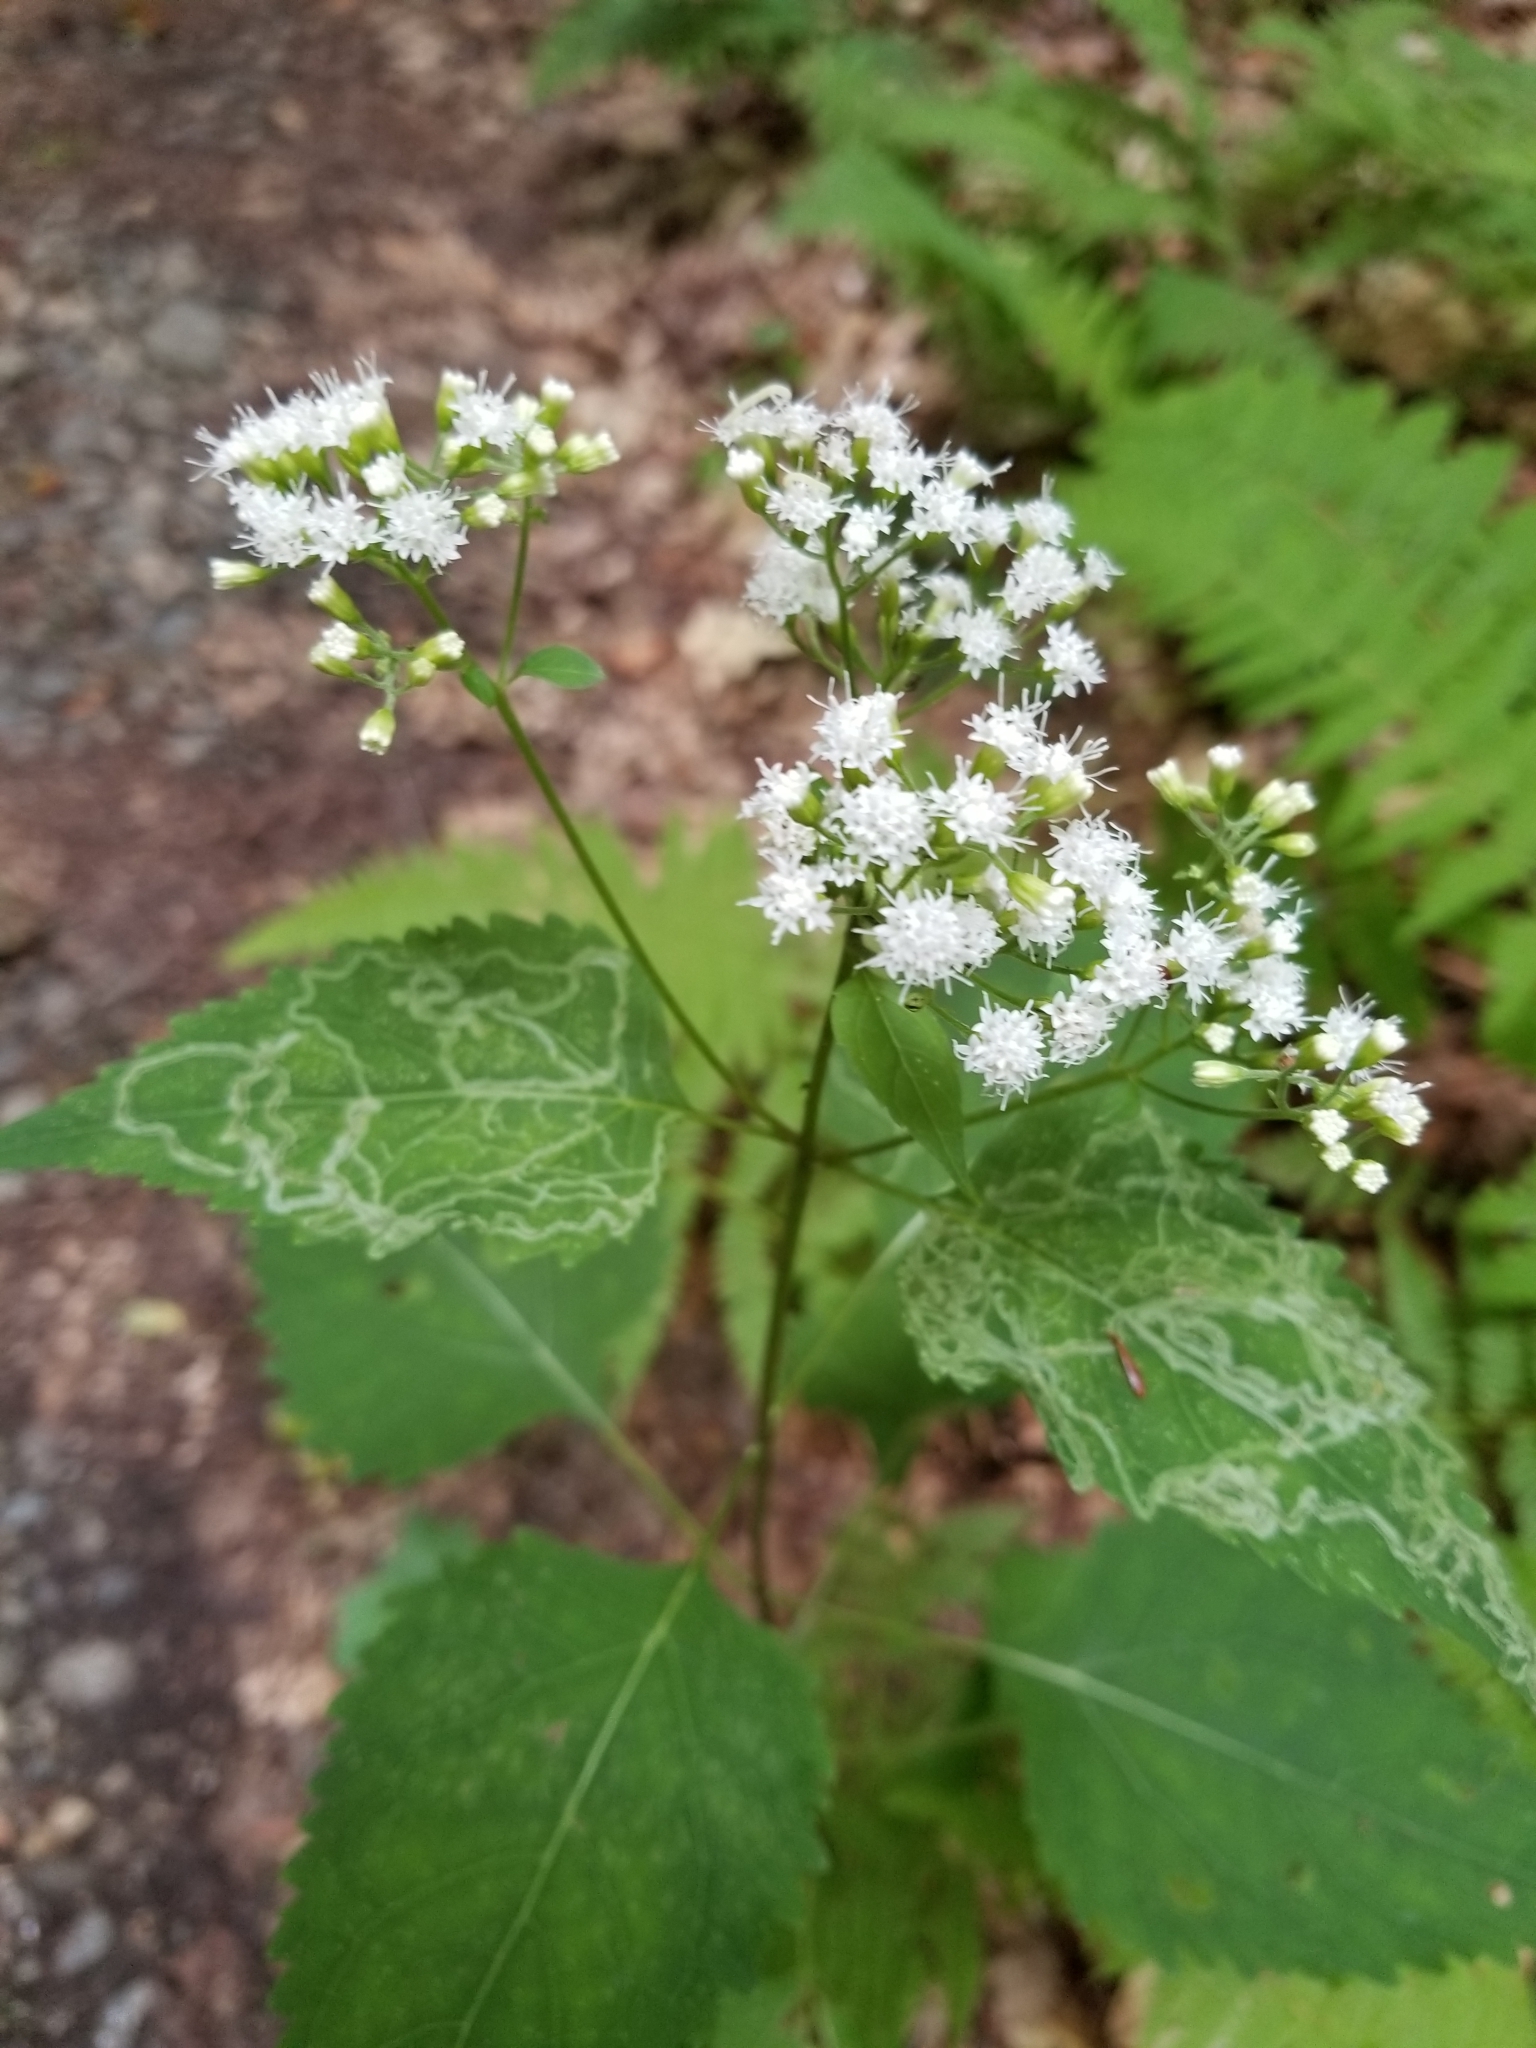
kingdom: Plantae
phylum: Tracheophyta
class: Magnoliopsida
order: Asterales
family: Asteraceae
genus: Ageratina
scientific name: Ageratina altissima
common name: White snakeroot
